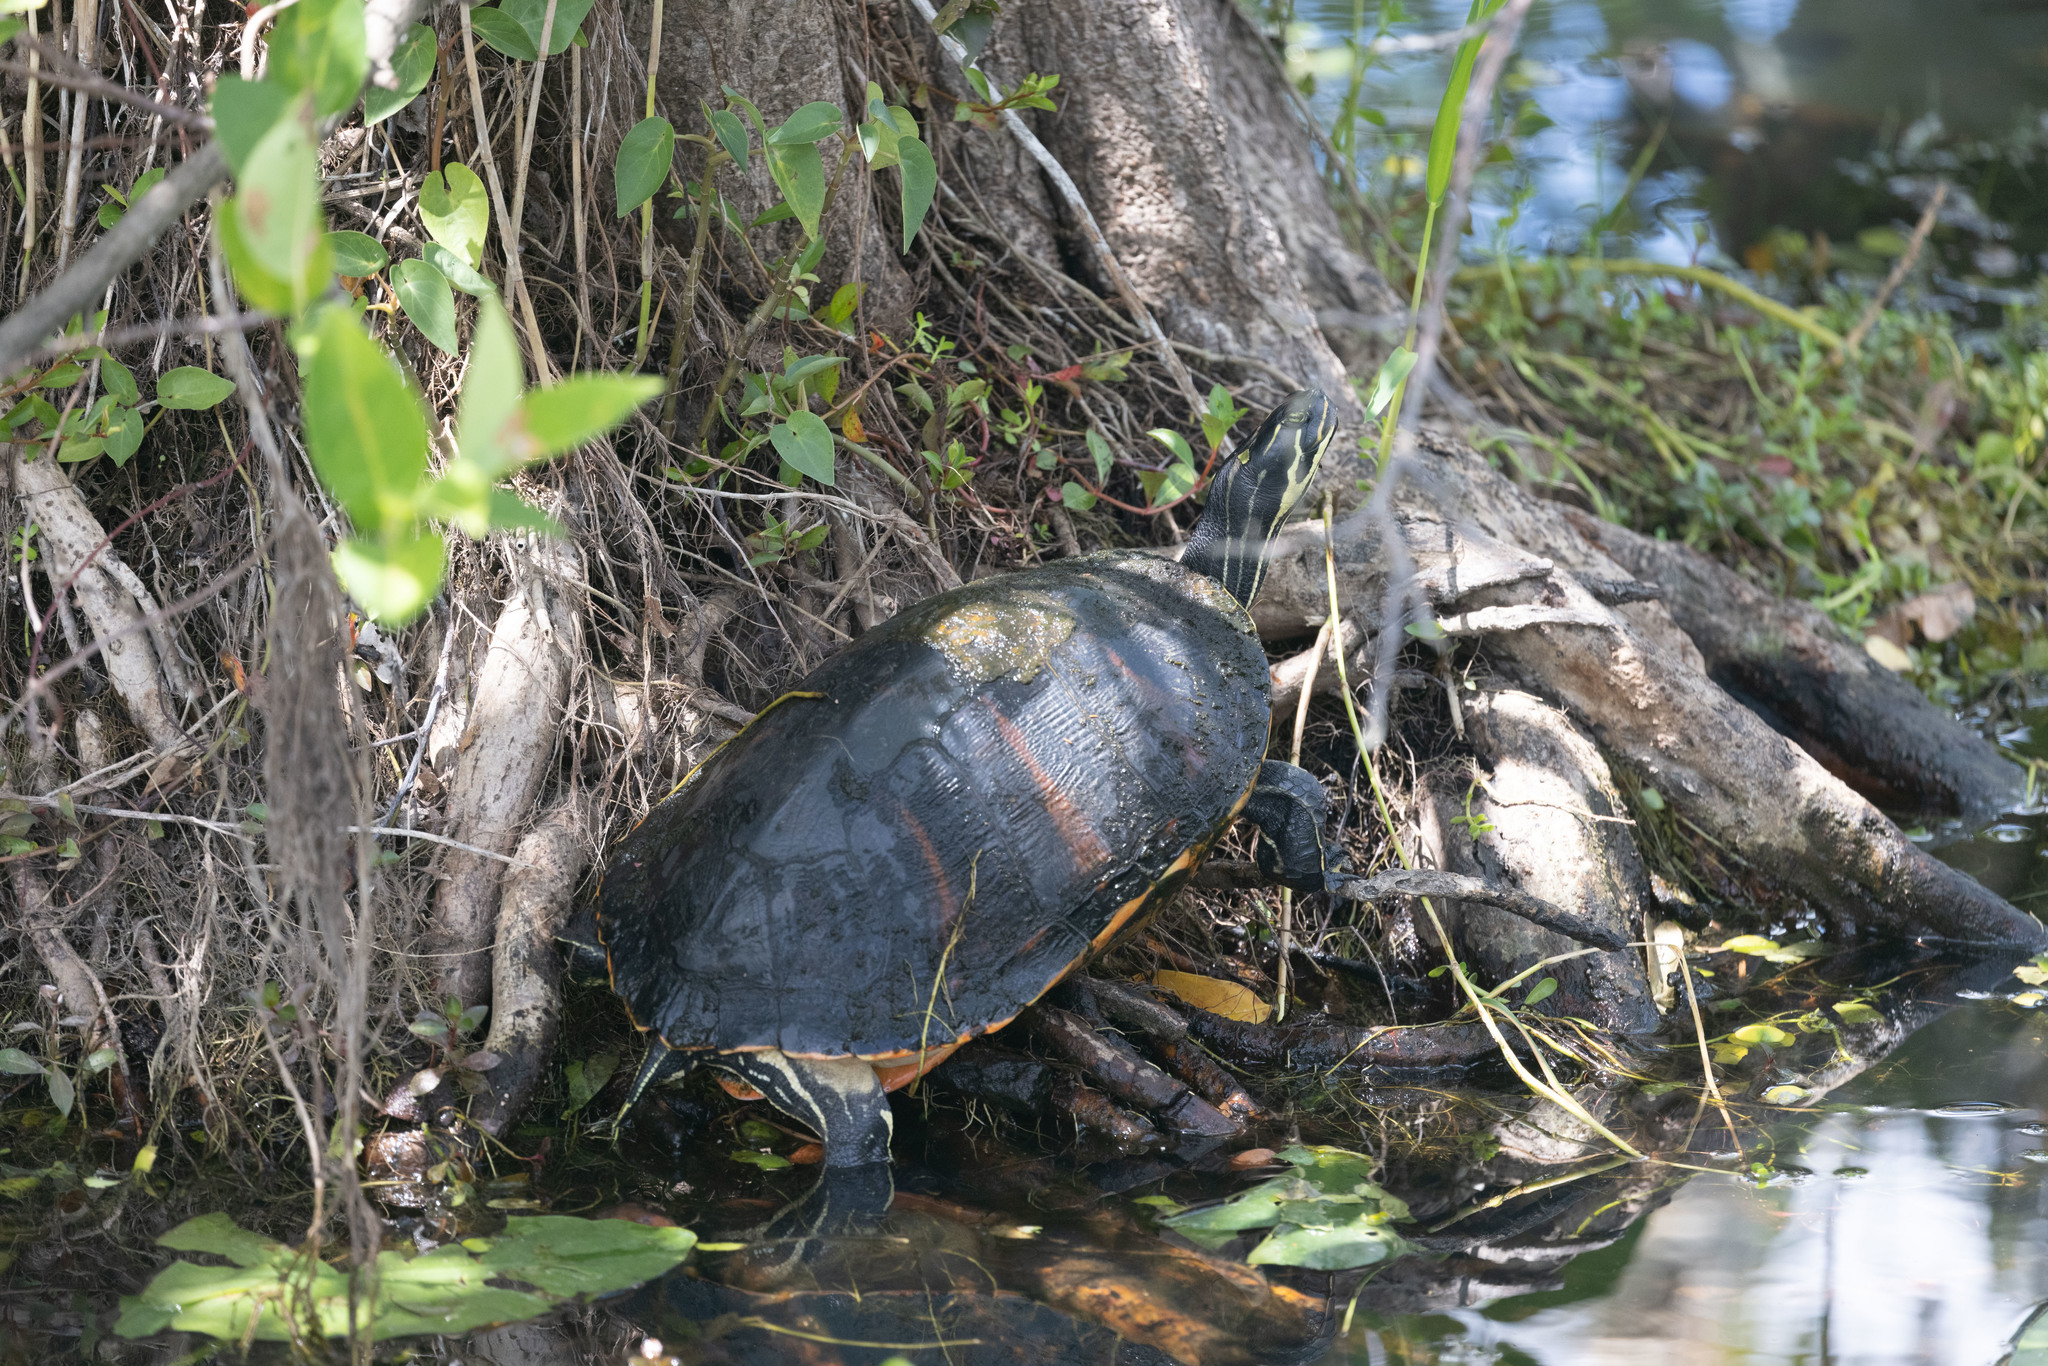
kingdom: Animalia
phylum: Chordata
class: Testudines
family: Emydidae
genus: Pseudemys
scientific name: Pseudemys nelsoni
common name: Florida red-bellied turtle
